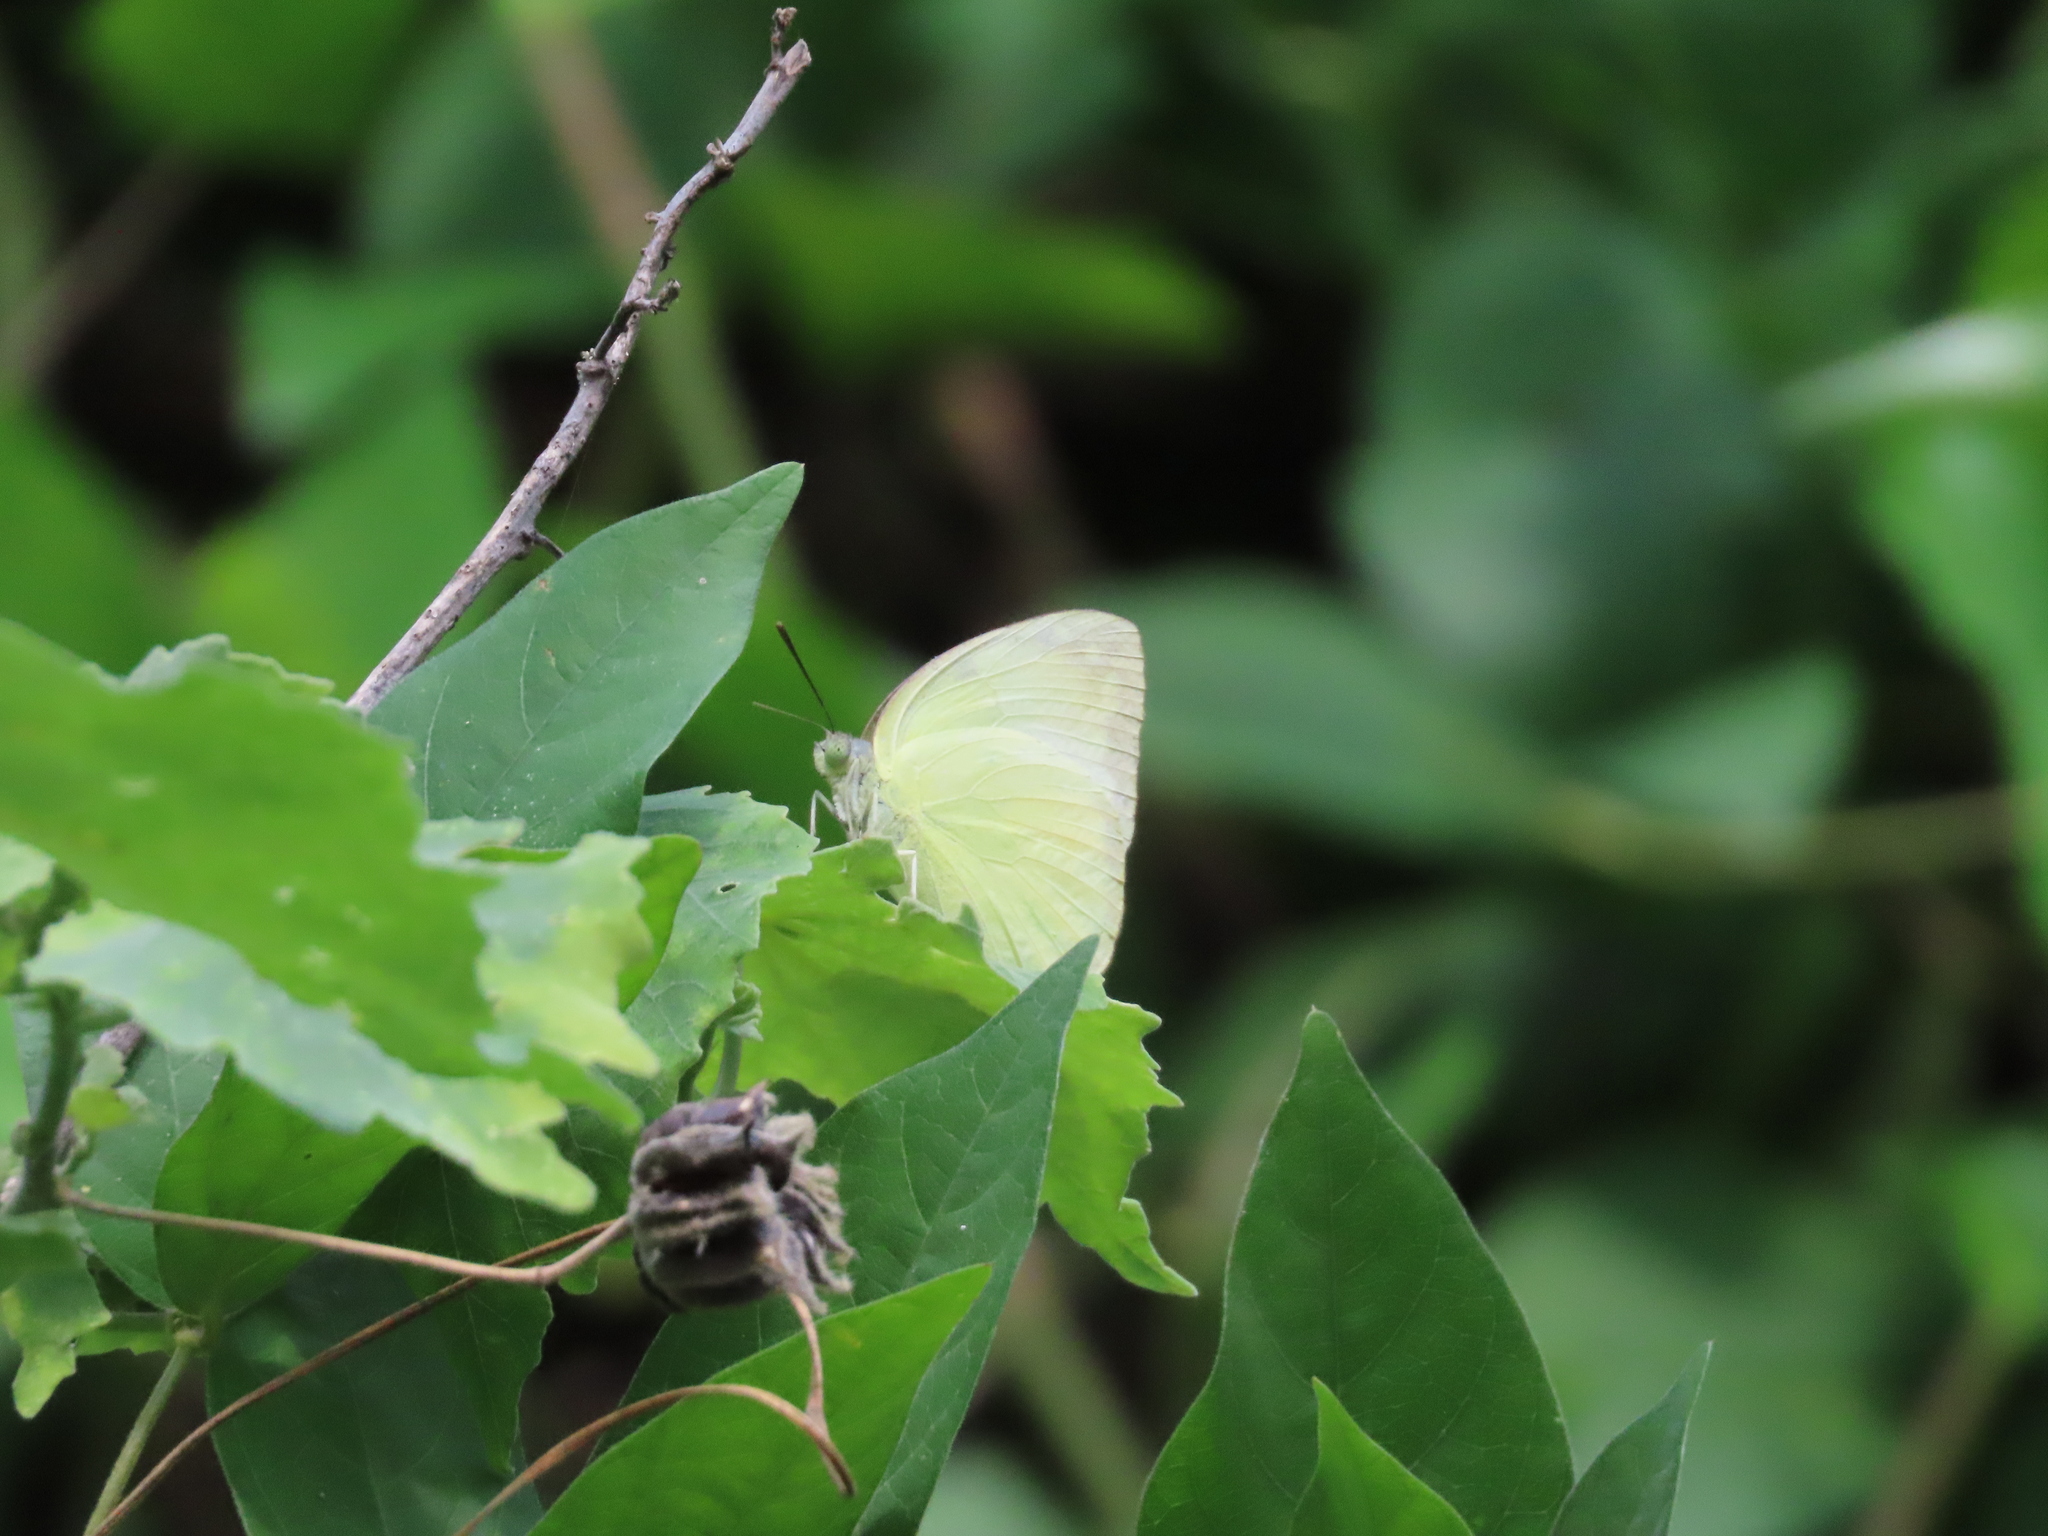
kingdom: Animalia
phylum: Arthropoda
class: Insecta
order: Lepidoptera
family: Pieridae
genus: Catopsilia
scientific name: Catopsilia pomona
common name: Common emigrant
